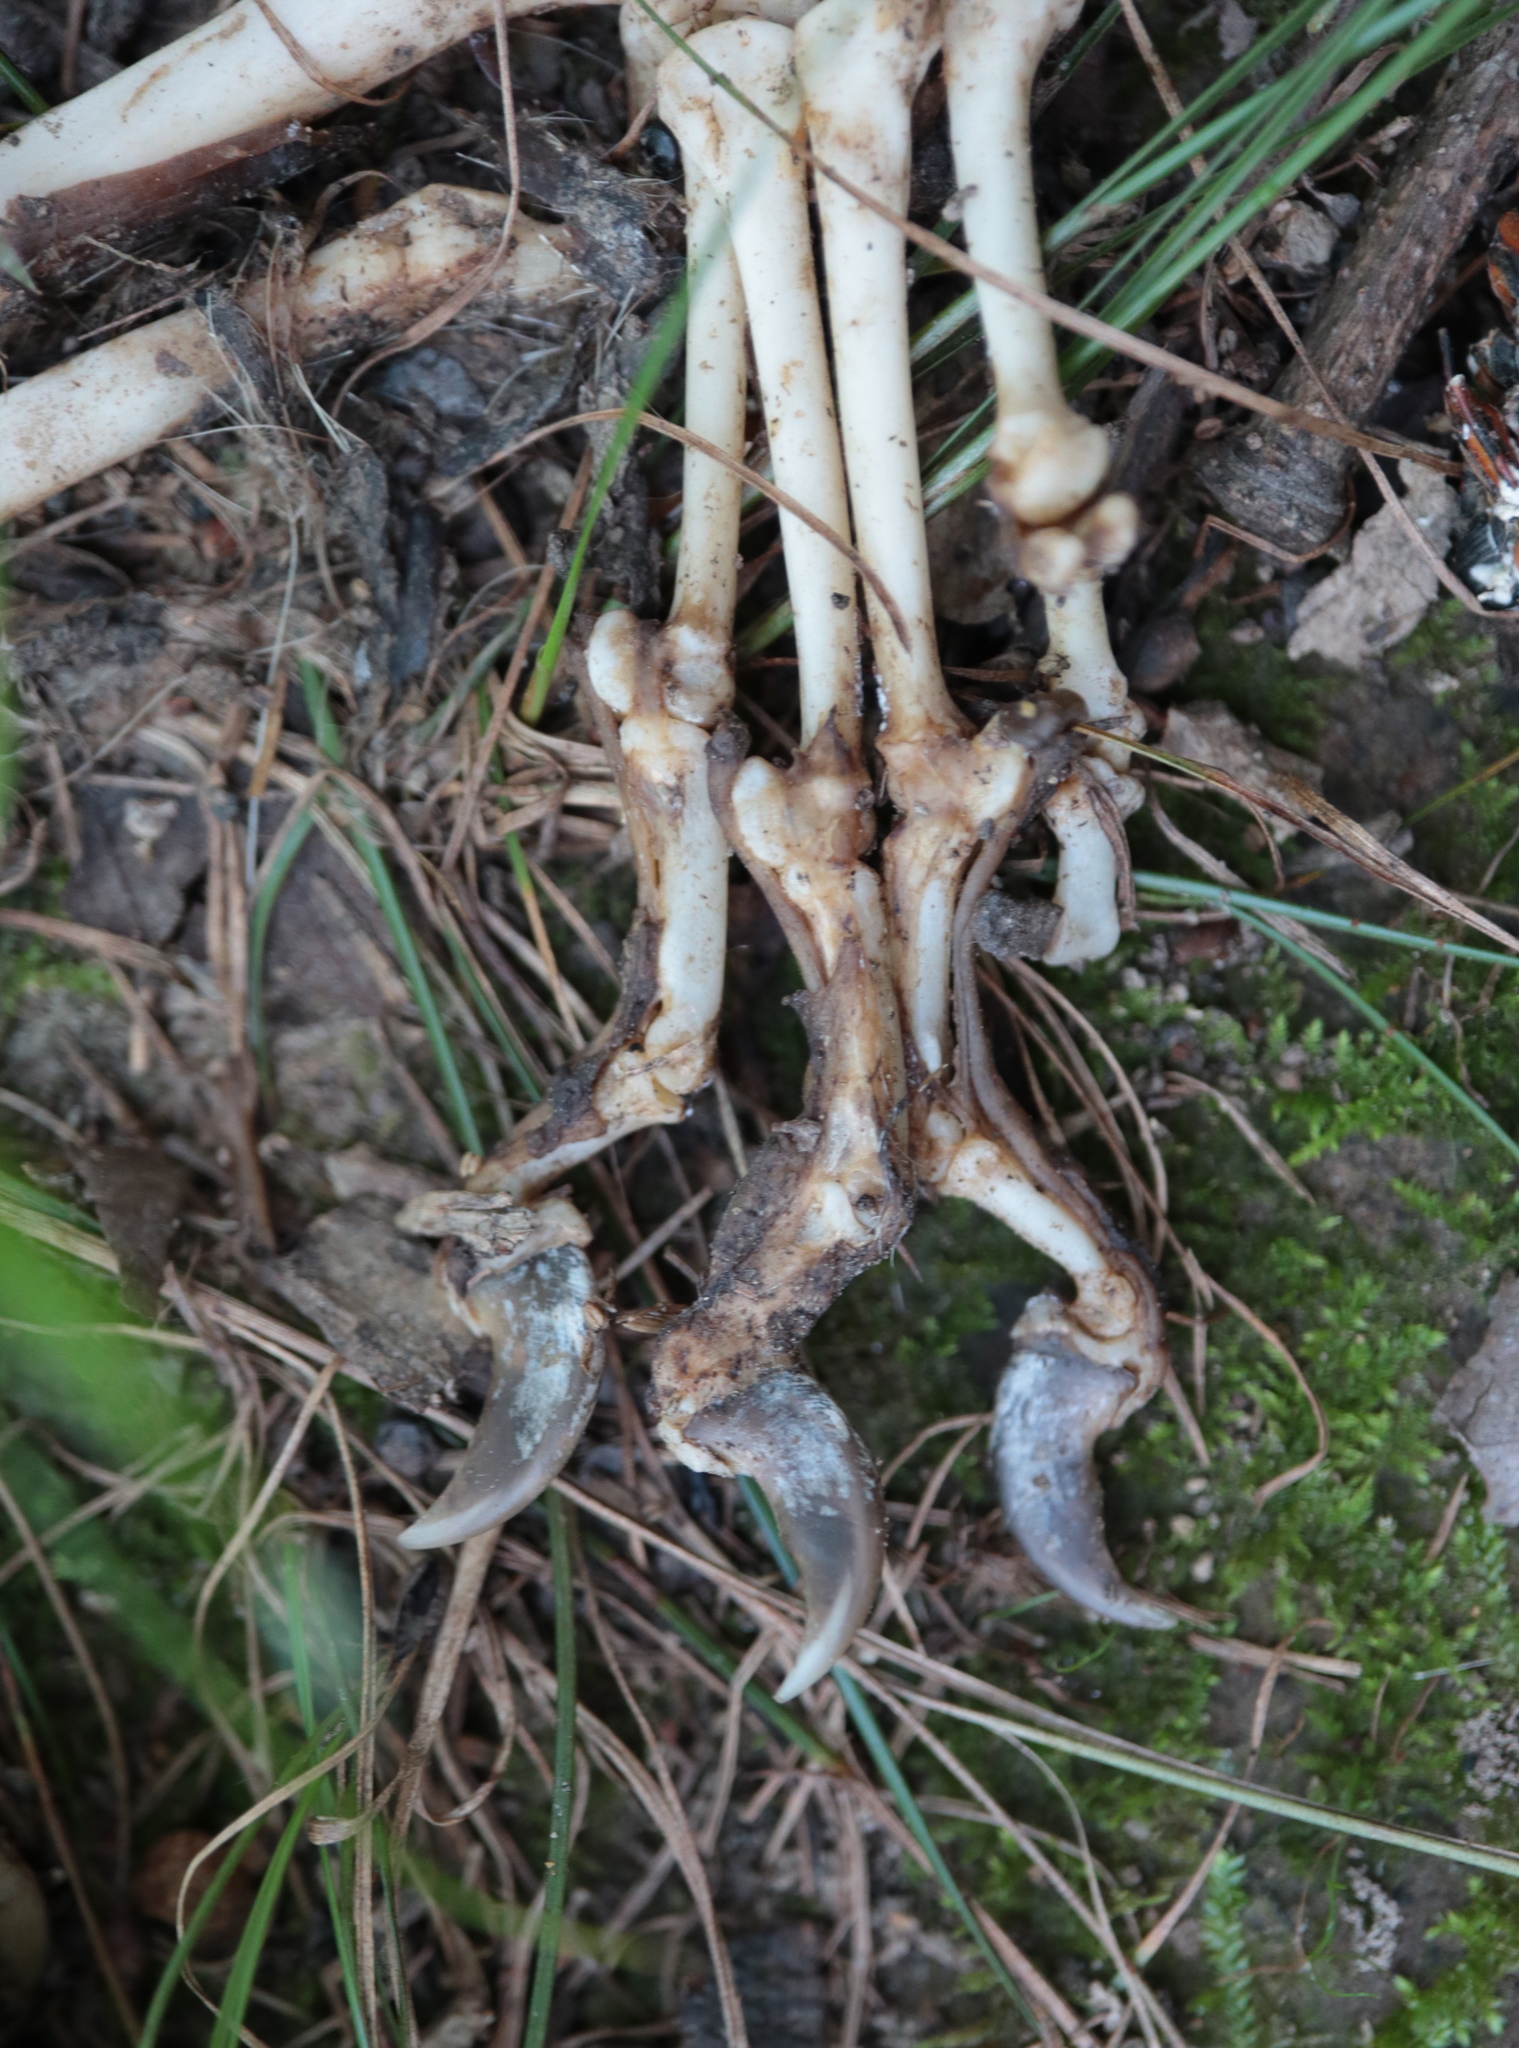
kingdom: Animalia
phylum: Chordata
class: Mammalia
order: Carnivora
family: Procyonidae
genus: Procyon
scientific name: Procyon lotor
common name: Raccoon
